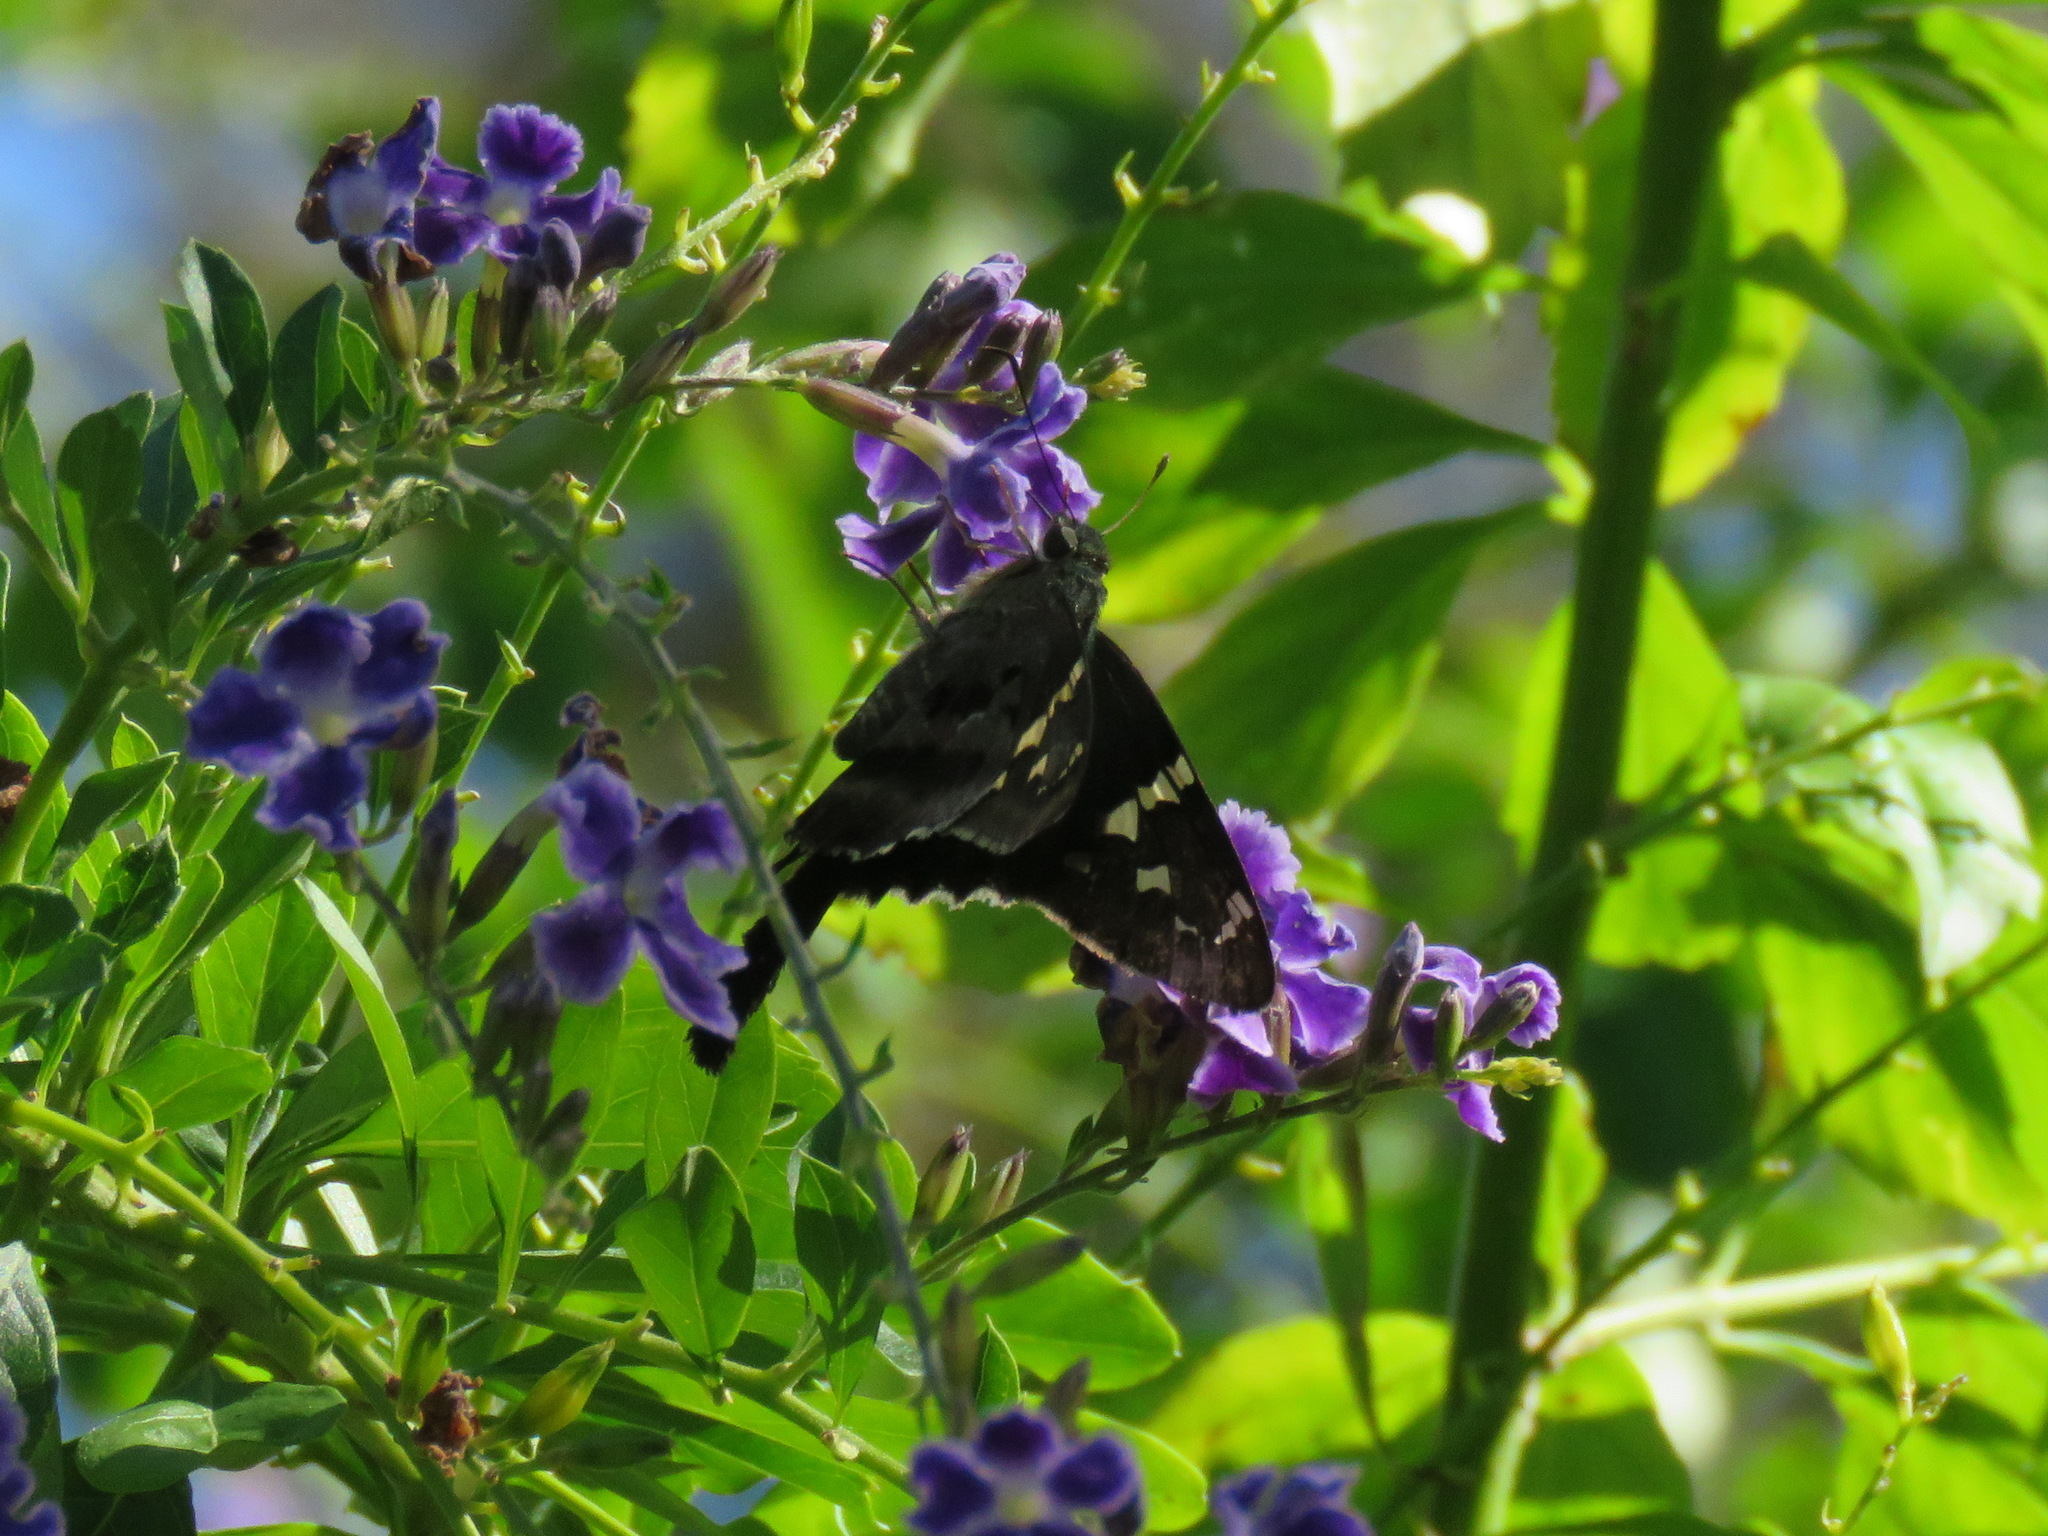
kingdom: Animalia
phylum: Arthropoda
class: Insecta
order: Lepidoptera
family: Hesperiidae
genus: Urbanus
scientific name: Urbanus proteus
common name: Long-tailed skipper
